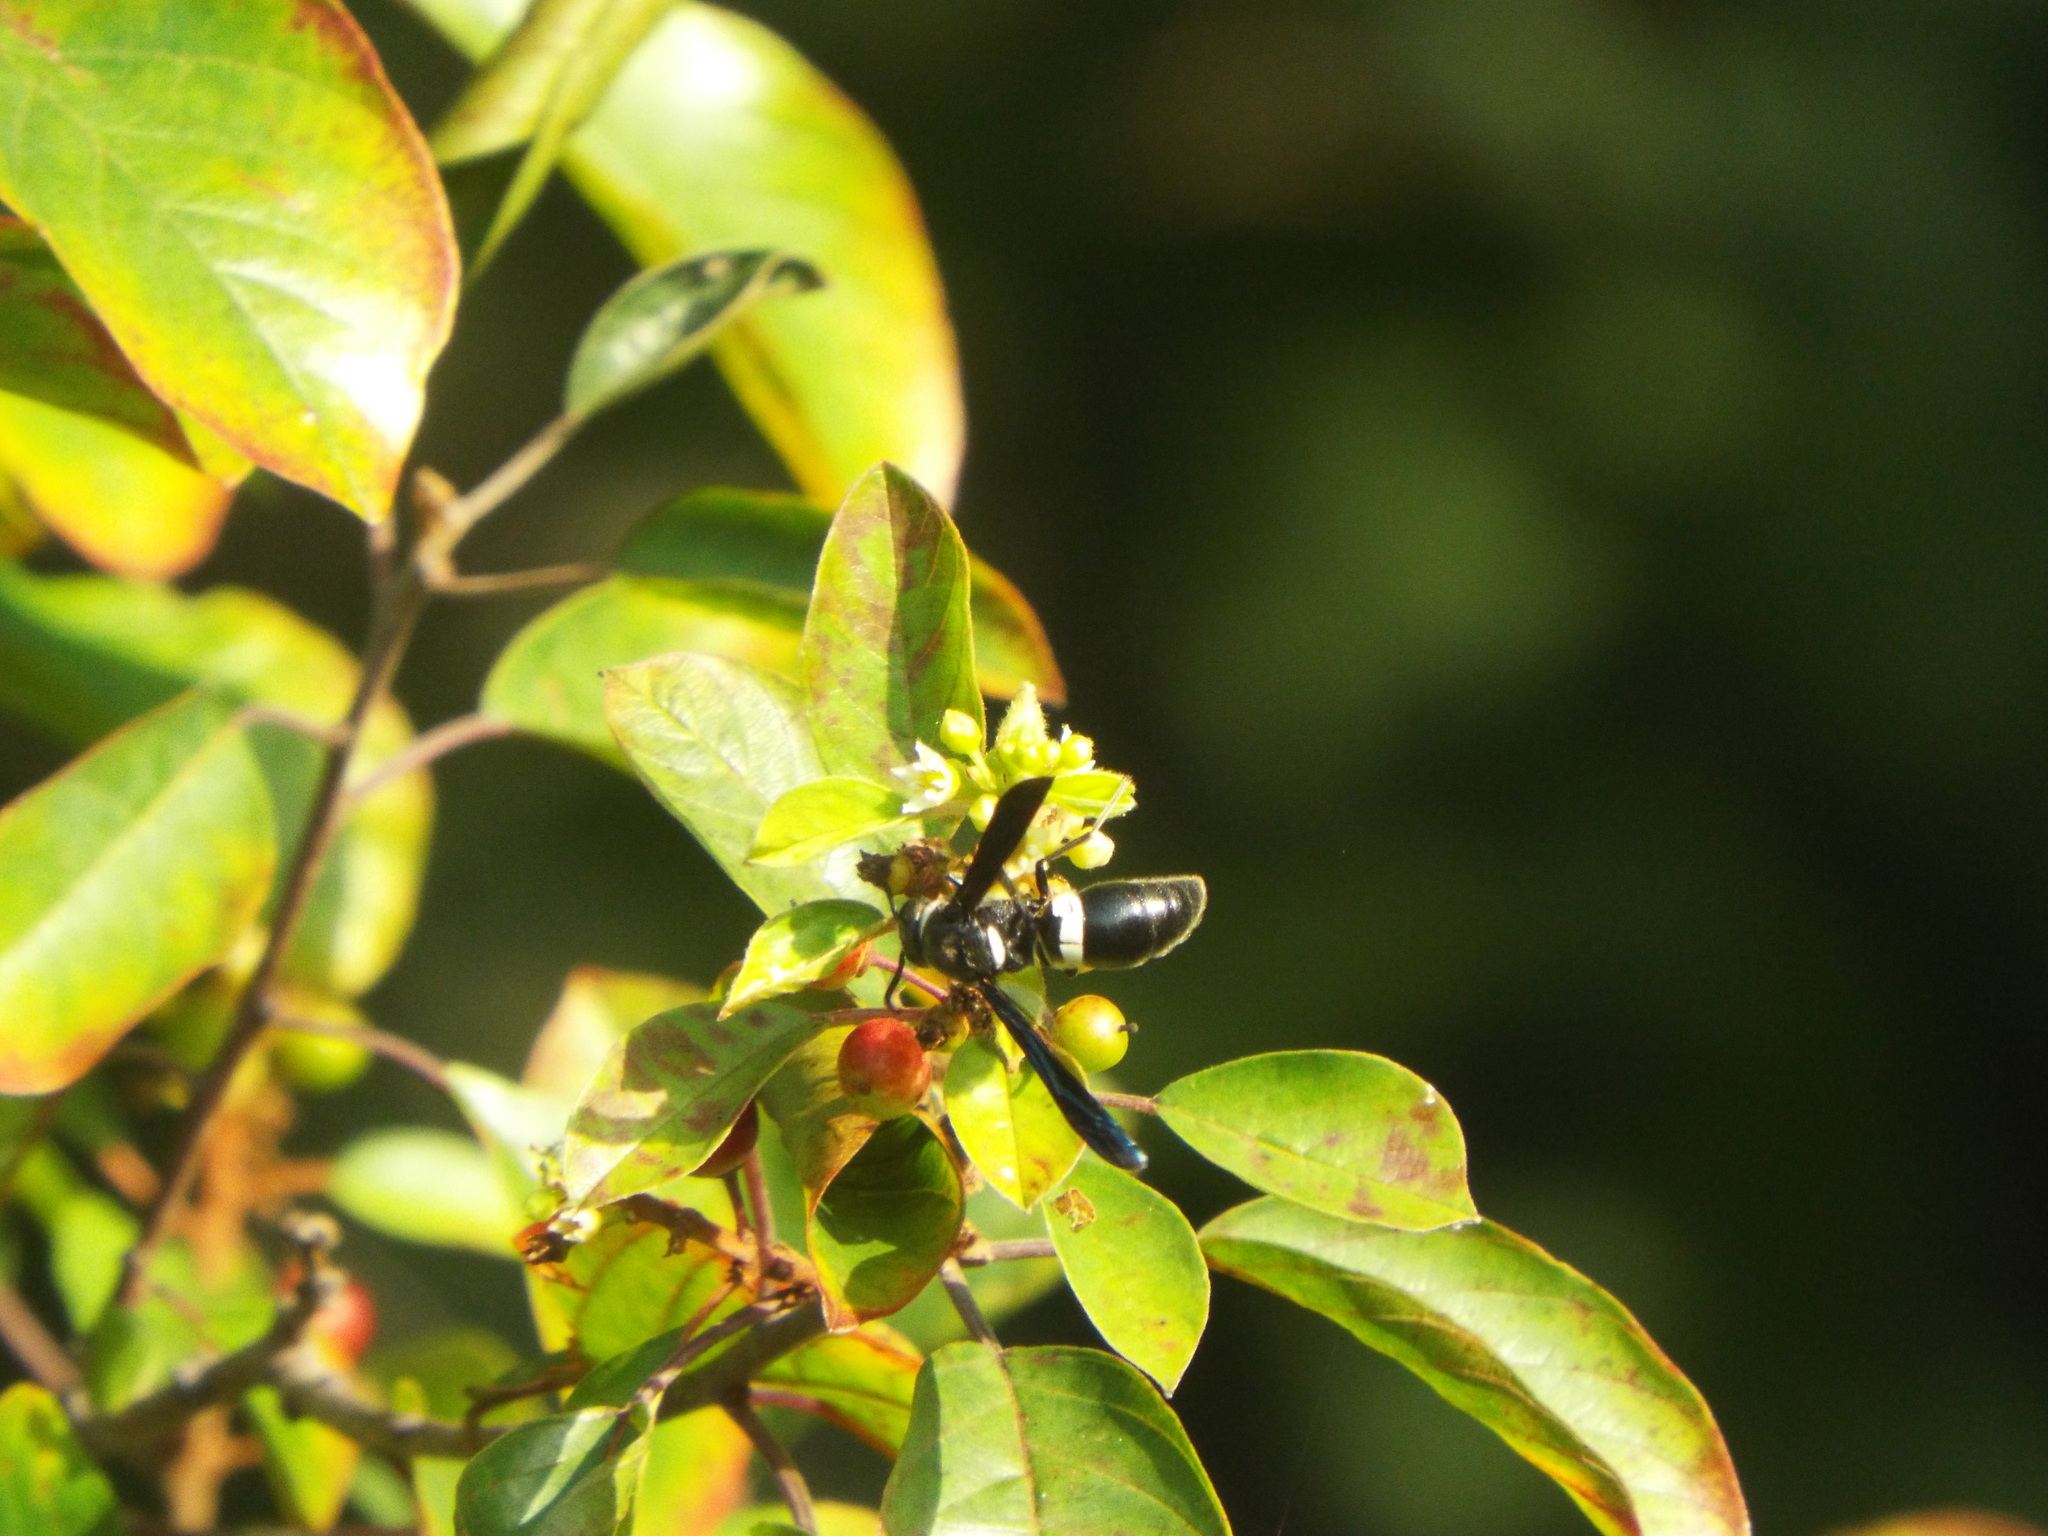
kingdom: Animalia
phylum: Arthropoda
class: Insecta
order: Hymenoptera
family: Eumenidae
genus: Monobia
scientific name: Monobia quadridens
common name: Four-toothed mason wasp
